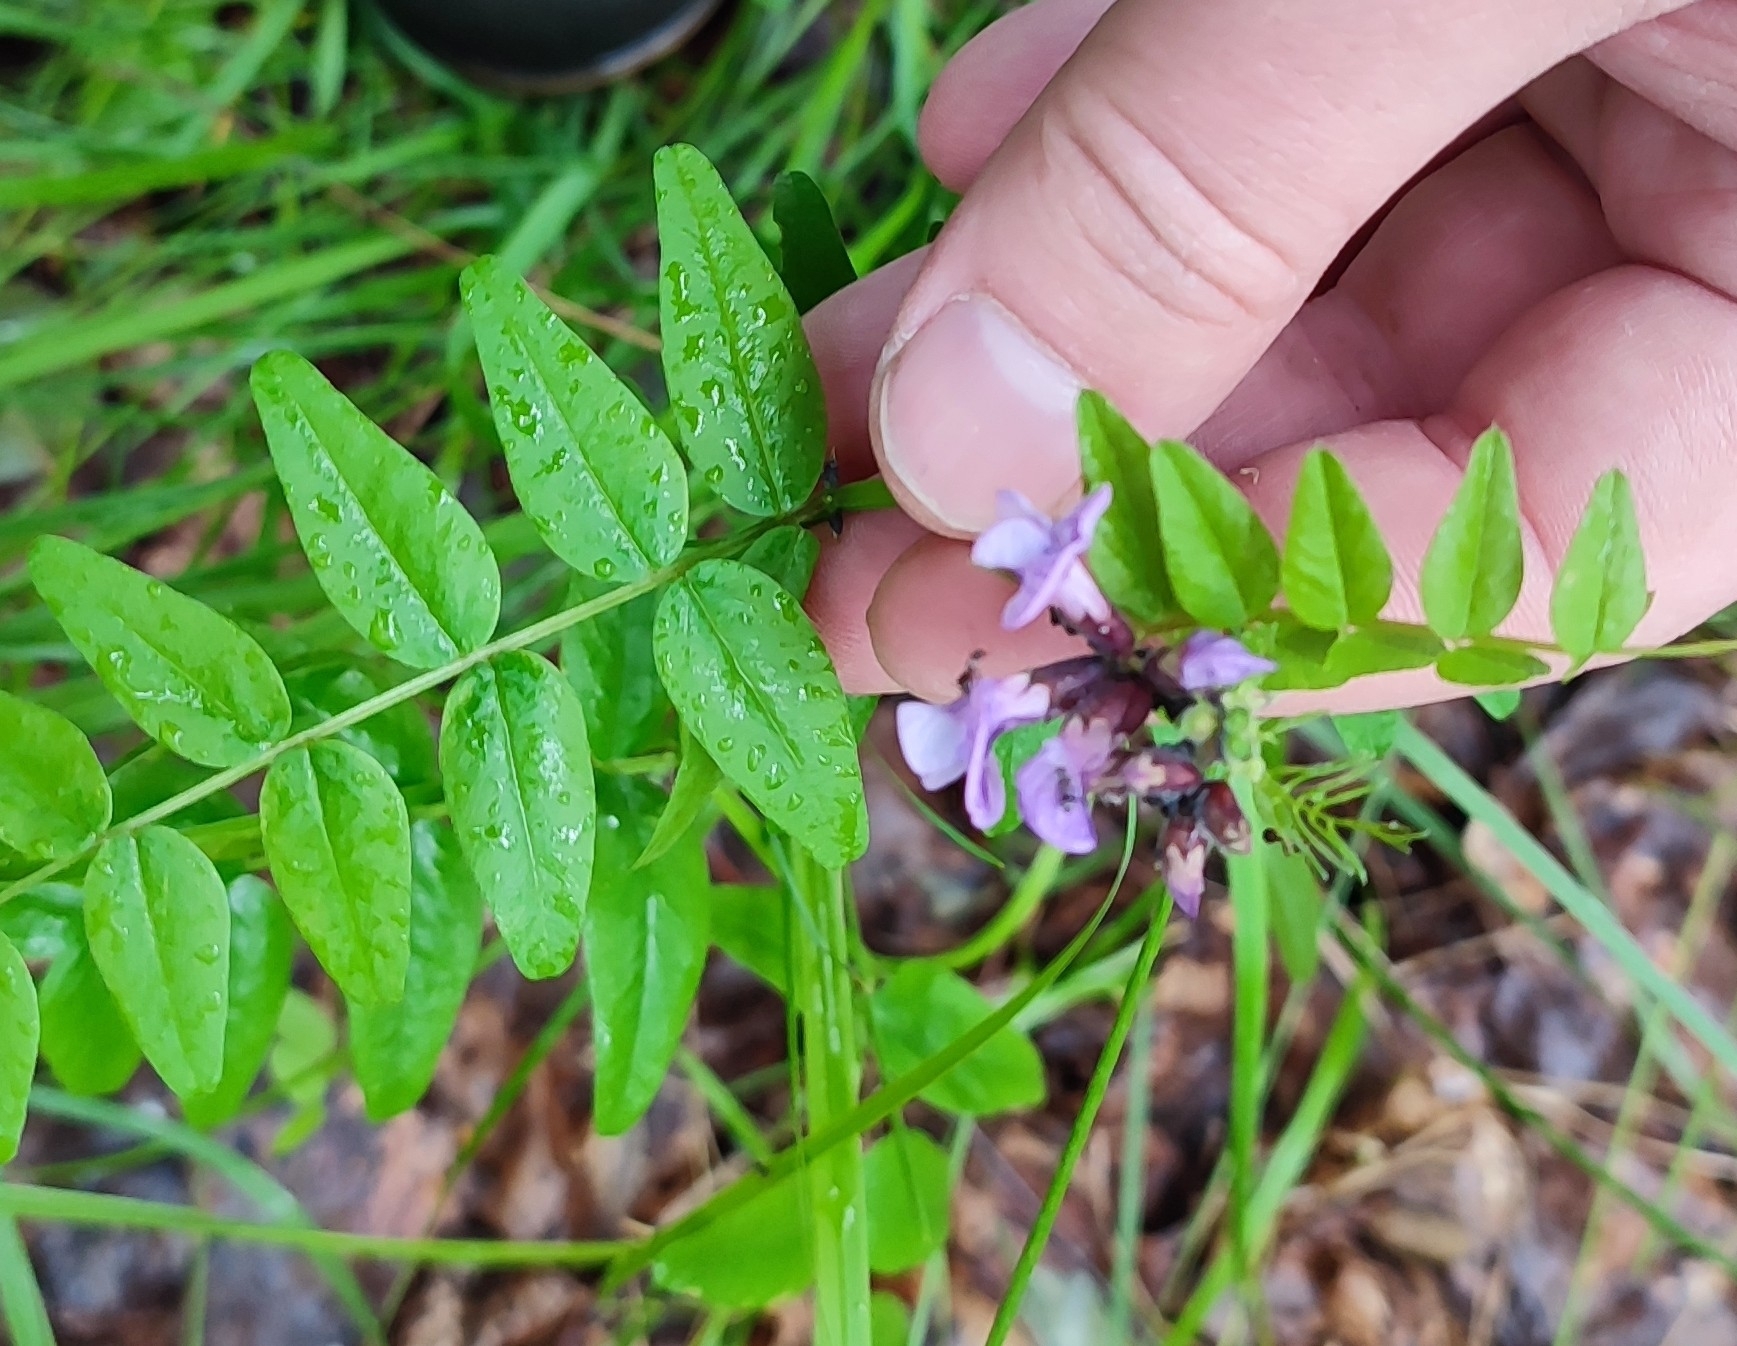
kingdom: Plantae
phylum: Tracheophyta
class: Magnoliopsida
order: Fabales
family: Fabaceae
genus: Vicia
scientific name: Vicia sepium
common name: Bush vetch
